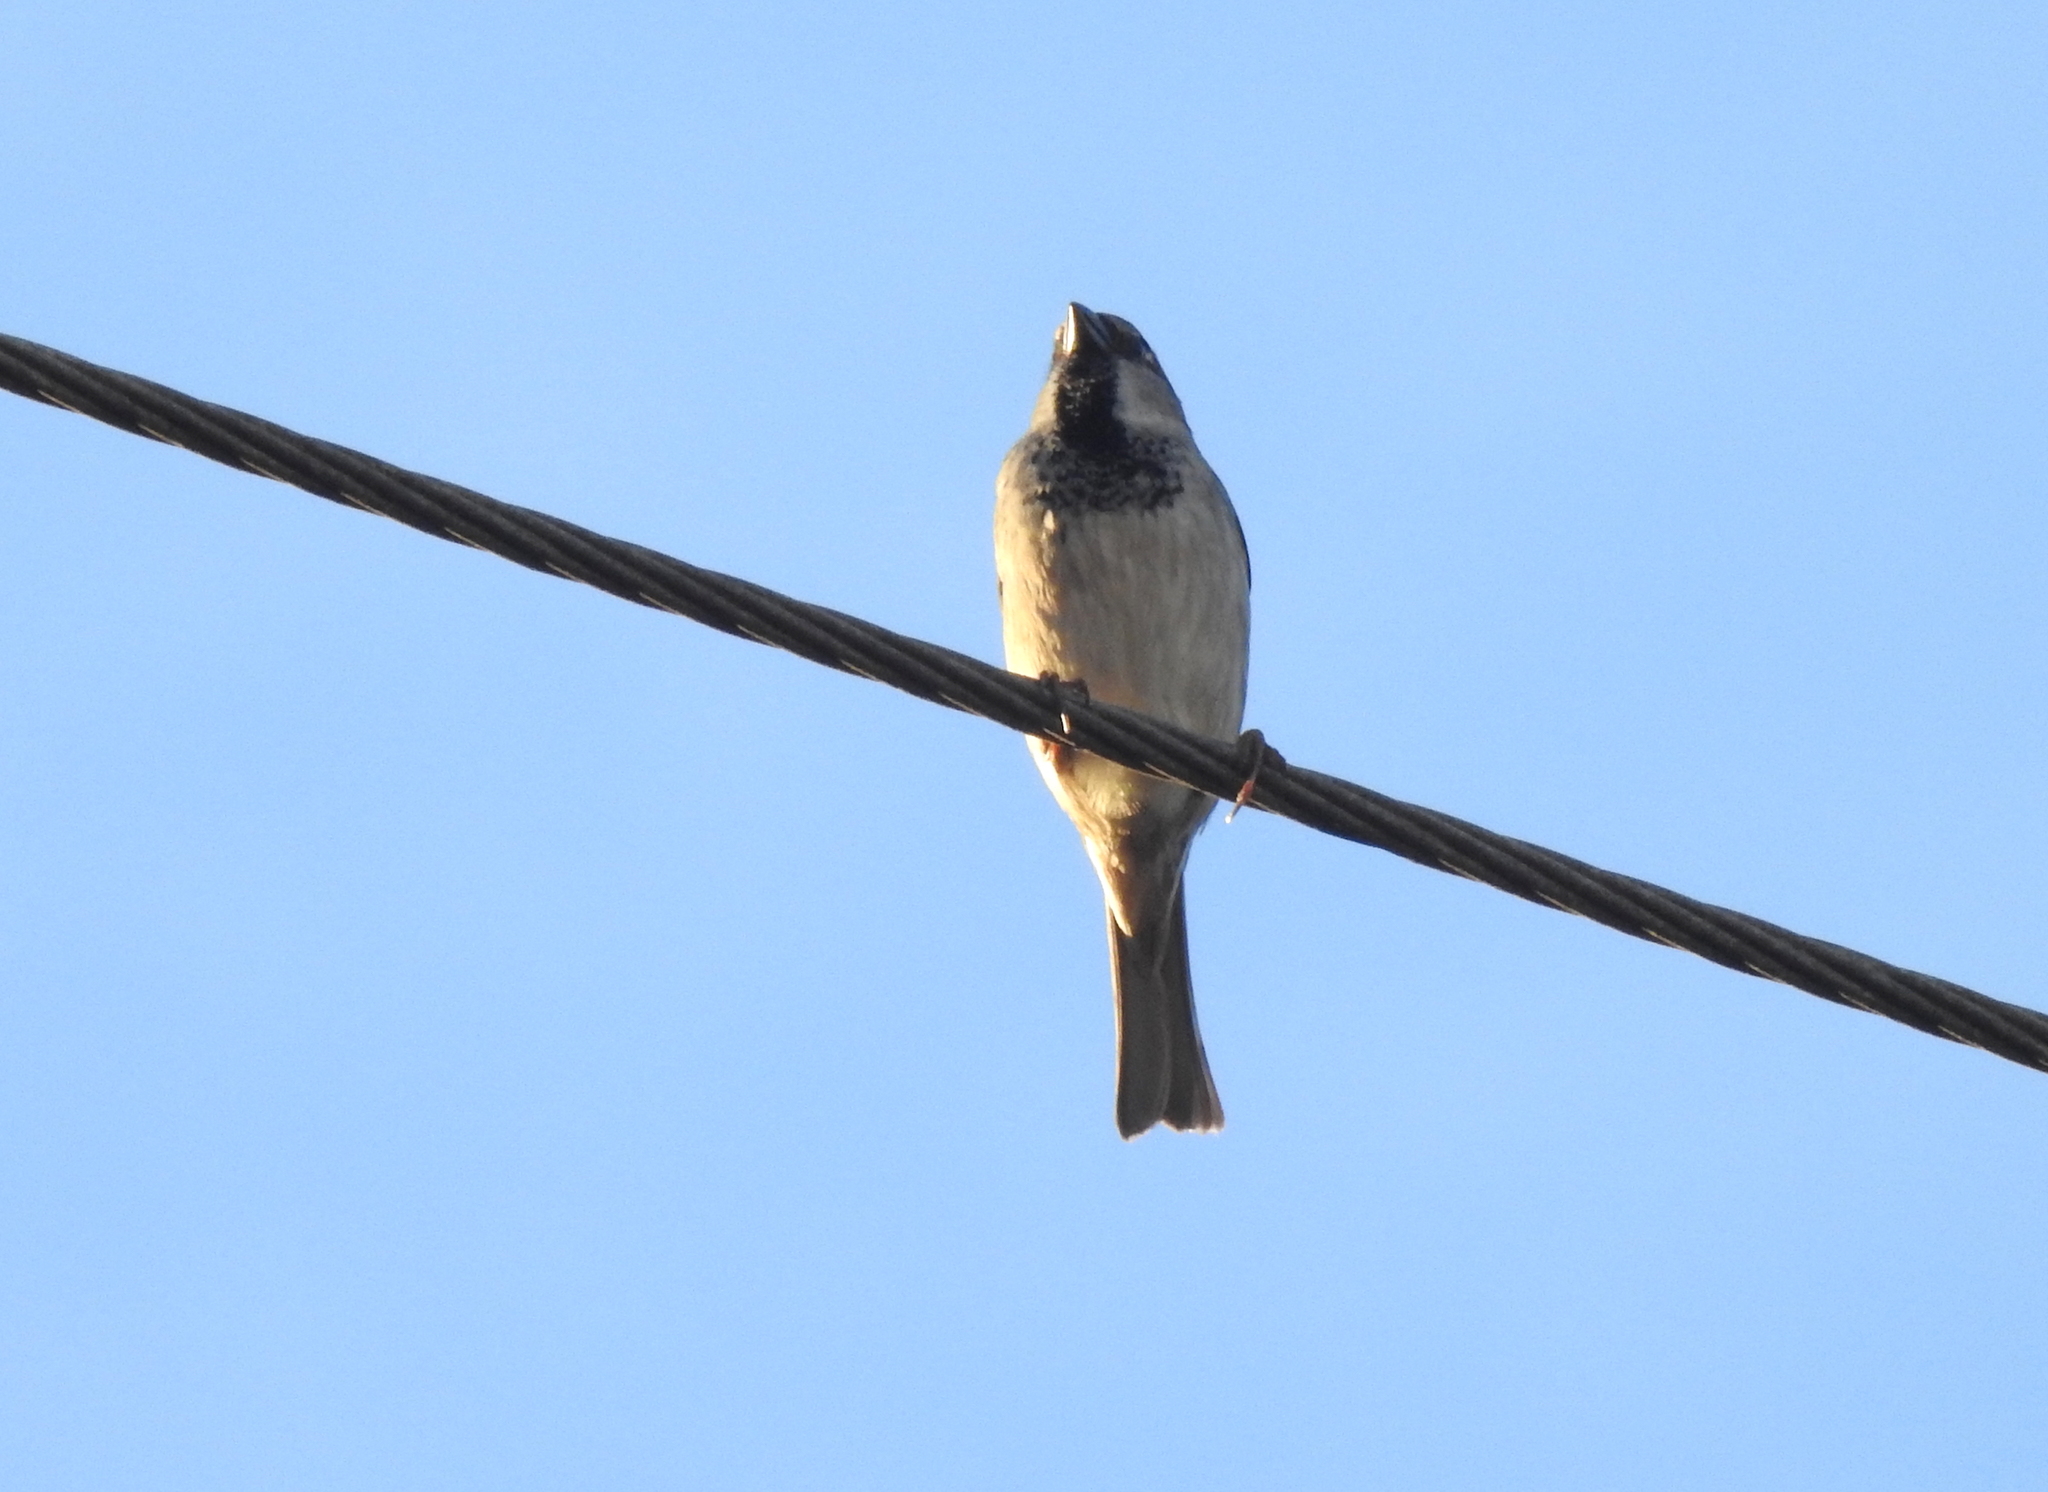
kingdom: Animalia
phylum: Chordata
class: Aves
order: Passeriformes
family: Passeridae
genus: Passer
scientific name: Passer domesticus
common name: House sparrow
